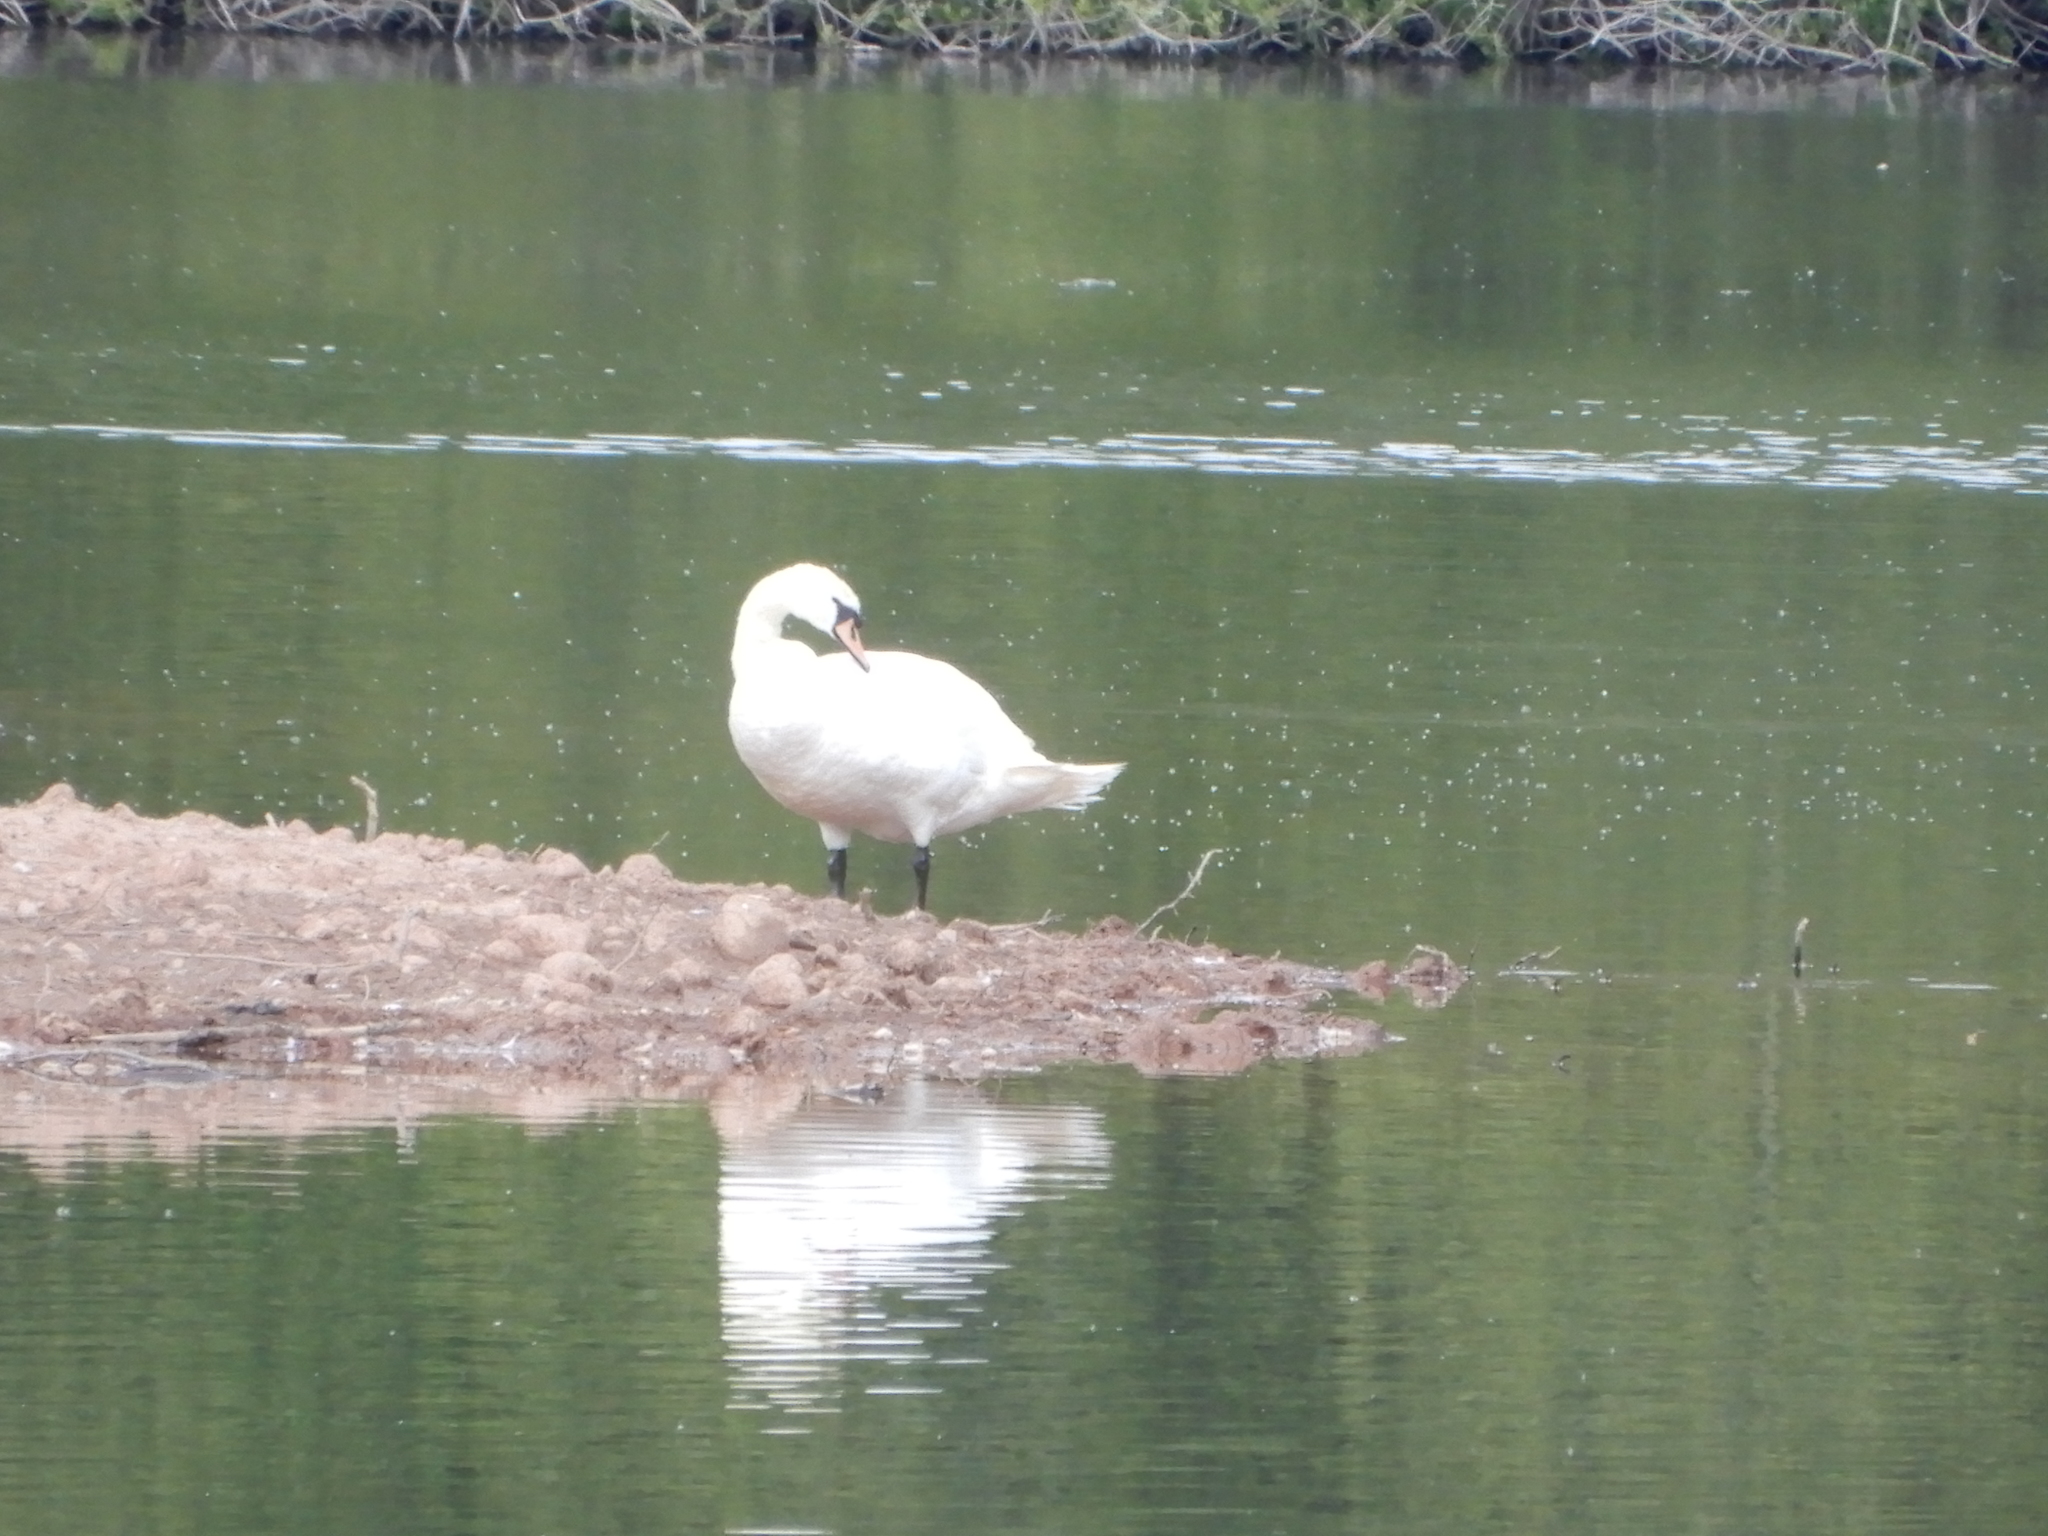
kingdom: Animalia
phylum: Chordata
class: Aves
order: Anseriformes
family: Anatidae
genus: Cygnus
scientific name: Cygnus olor
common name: Mute swan
